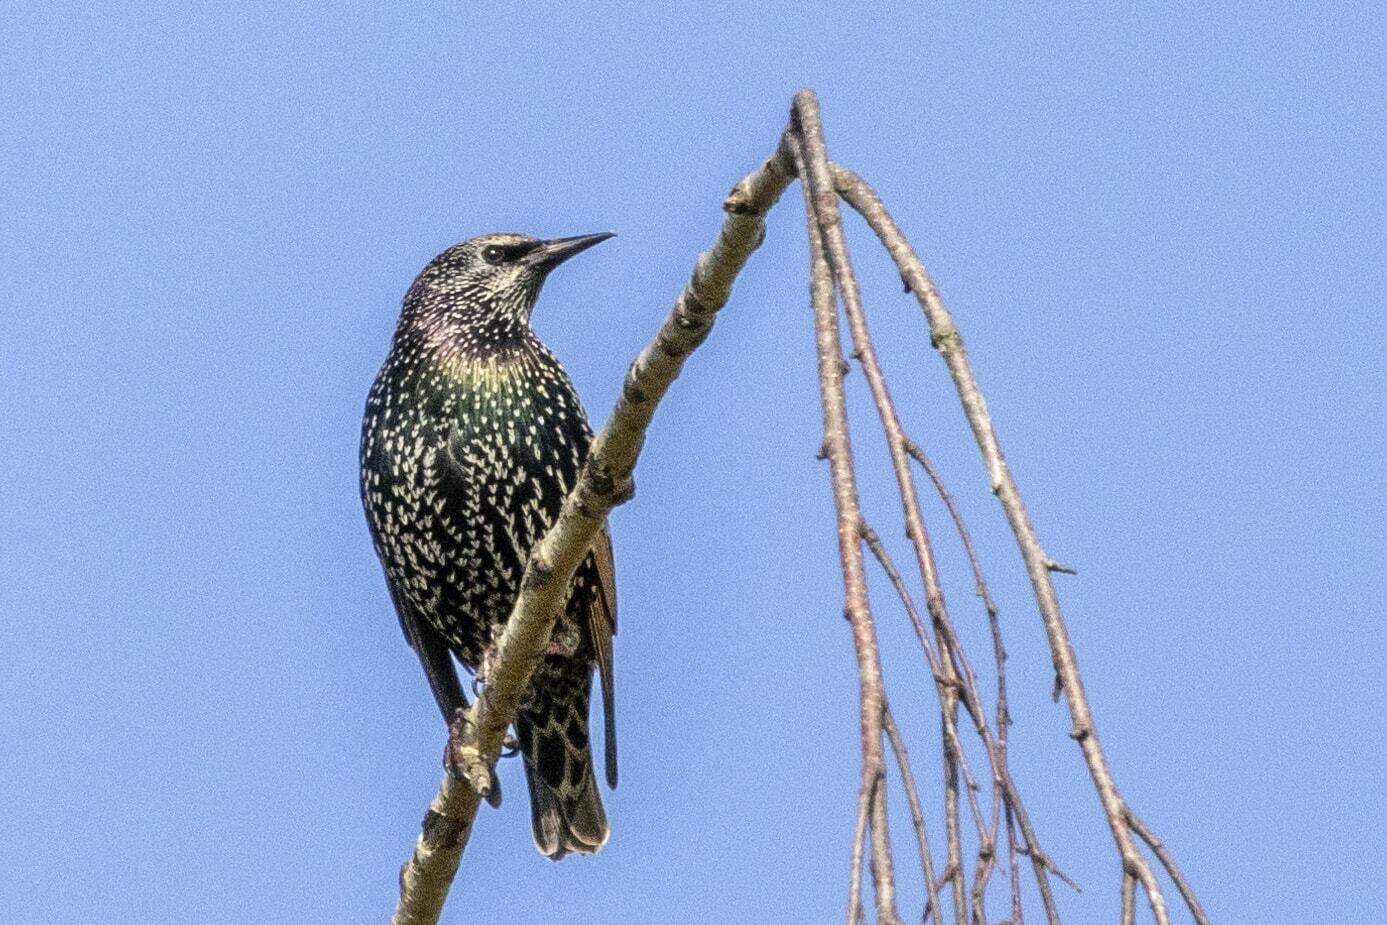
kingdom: Animalia
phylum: Chordata
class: Aves
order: Passeriformes
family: Sturnidae
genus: Sturnus
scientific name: Sturnus vulgaris
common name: Common starling
